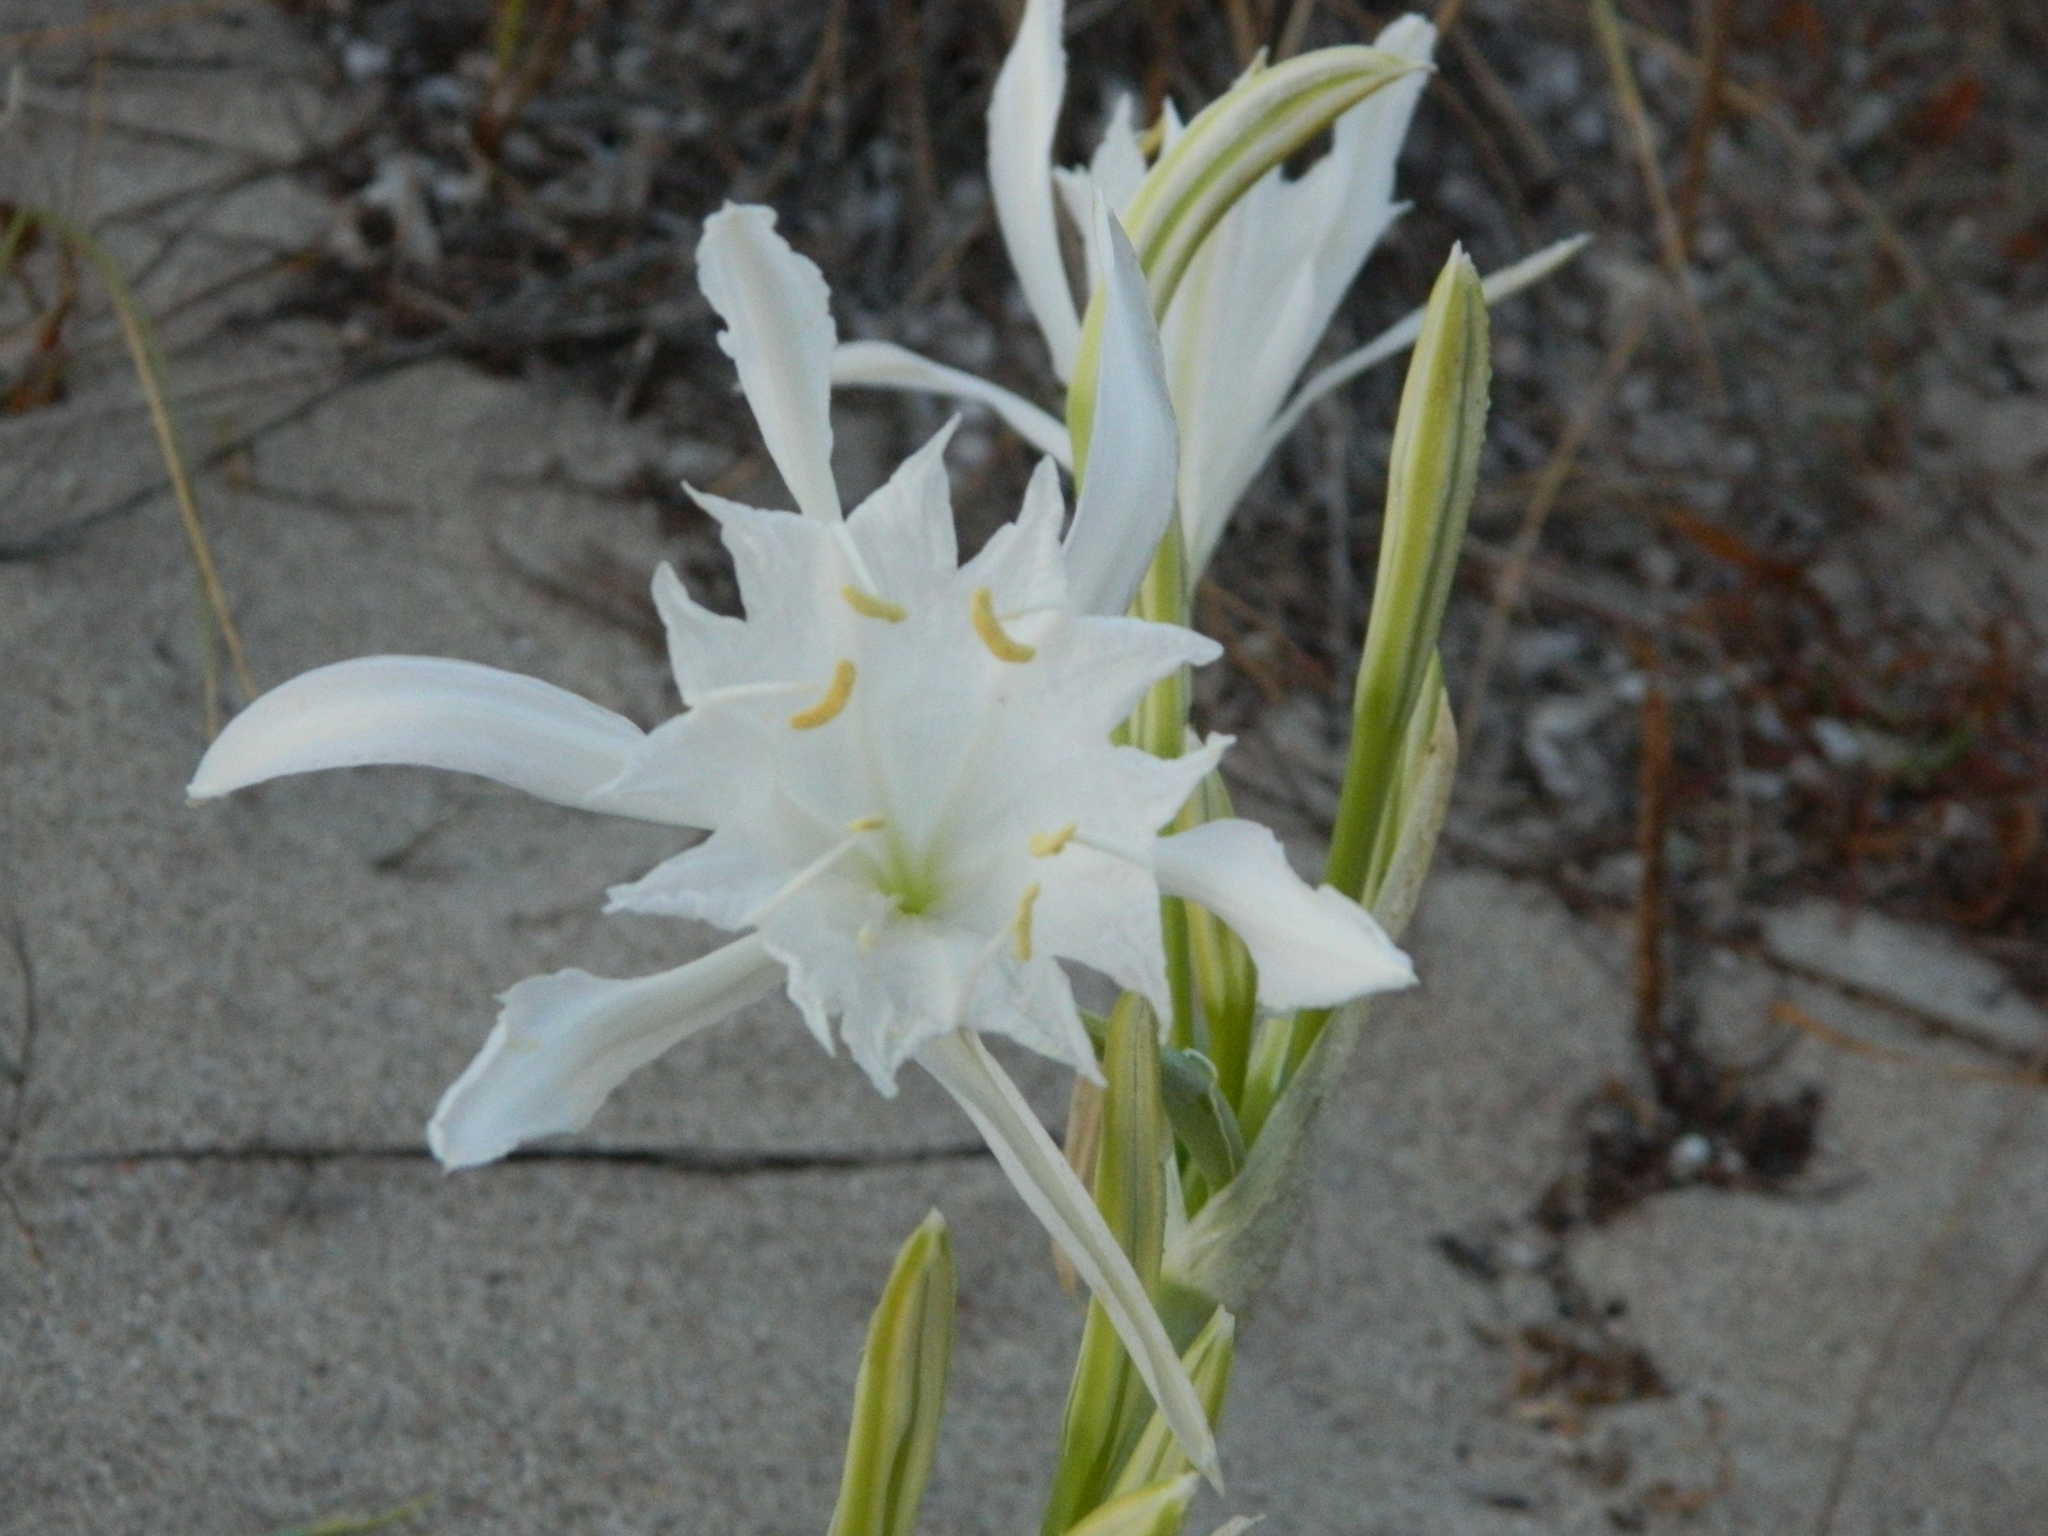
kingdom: Plantae
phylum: Tracheophyta
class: Liliopsida
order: Asparagales
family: Amaryllidaceae
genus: Pancratium
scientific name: Pancratium maritimum
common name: Sea-daffodil
